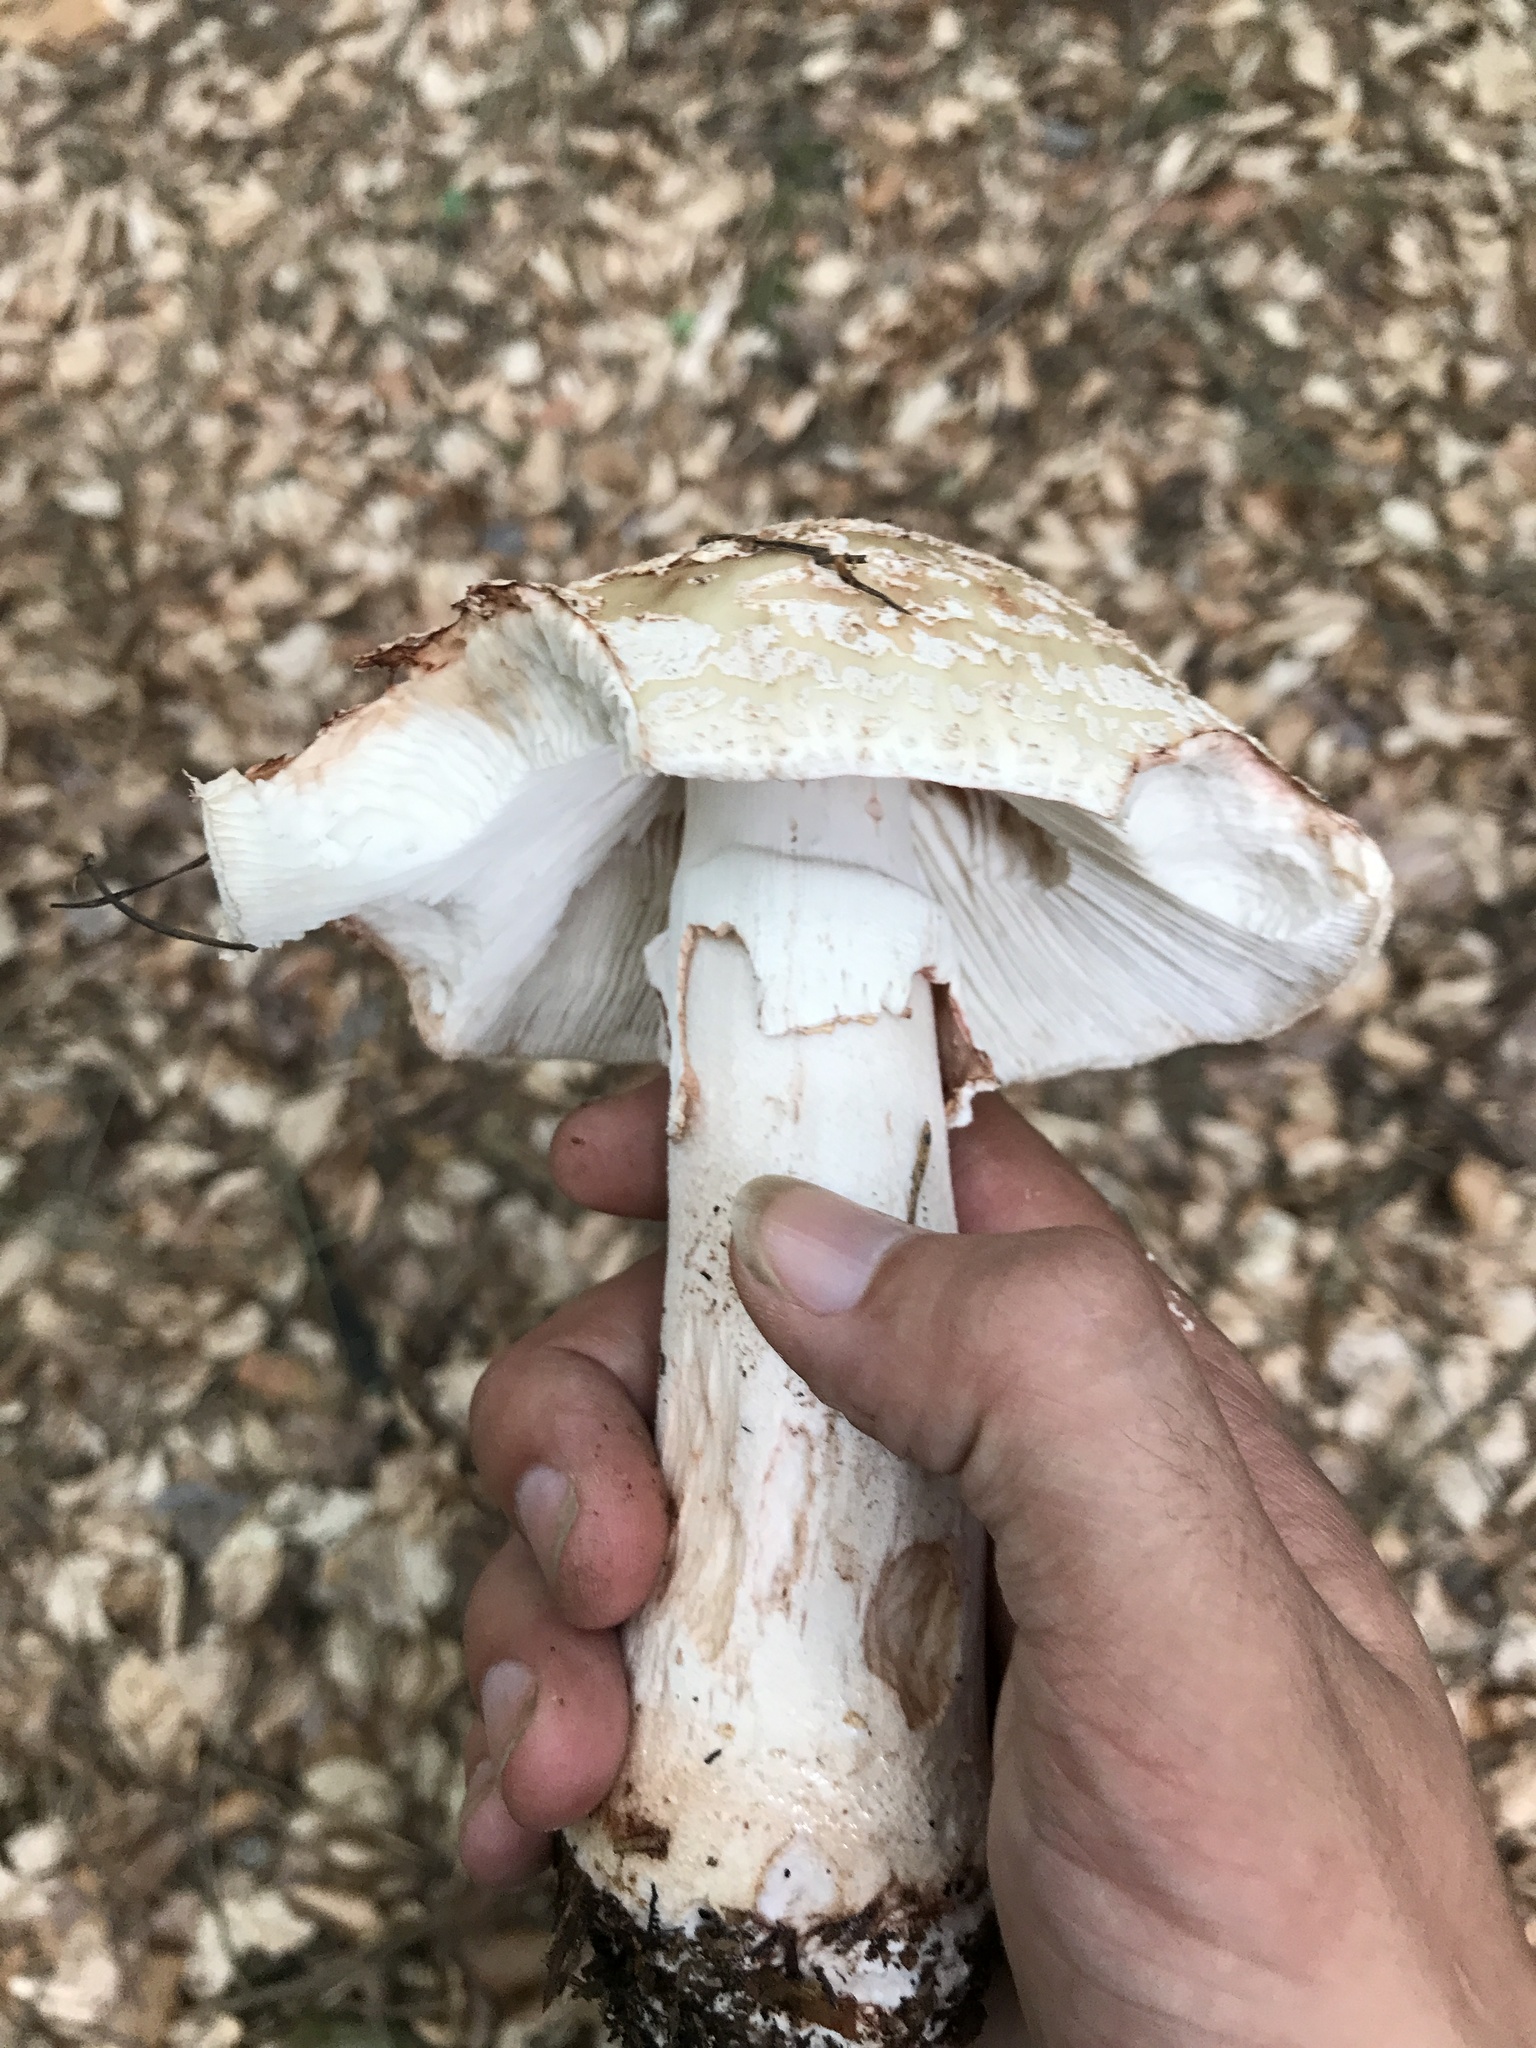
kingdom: Fungi
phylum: Basidiomycota
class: Agaricomycetes
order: Agaricales
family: Amanitaceae
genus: Amanita
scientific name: Amanita rubescens
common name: Blusher
